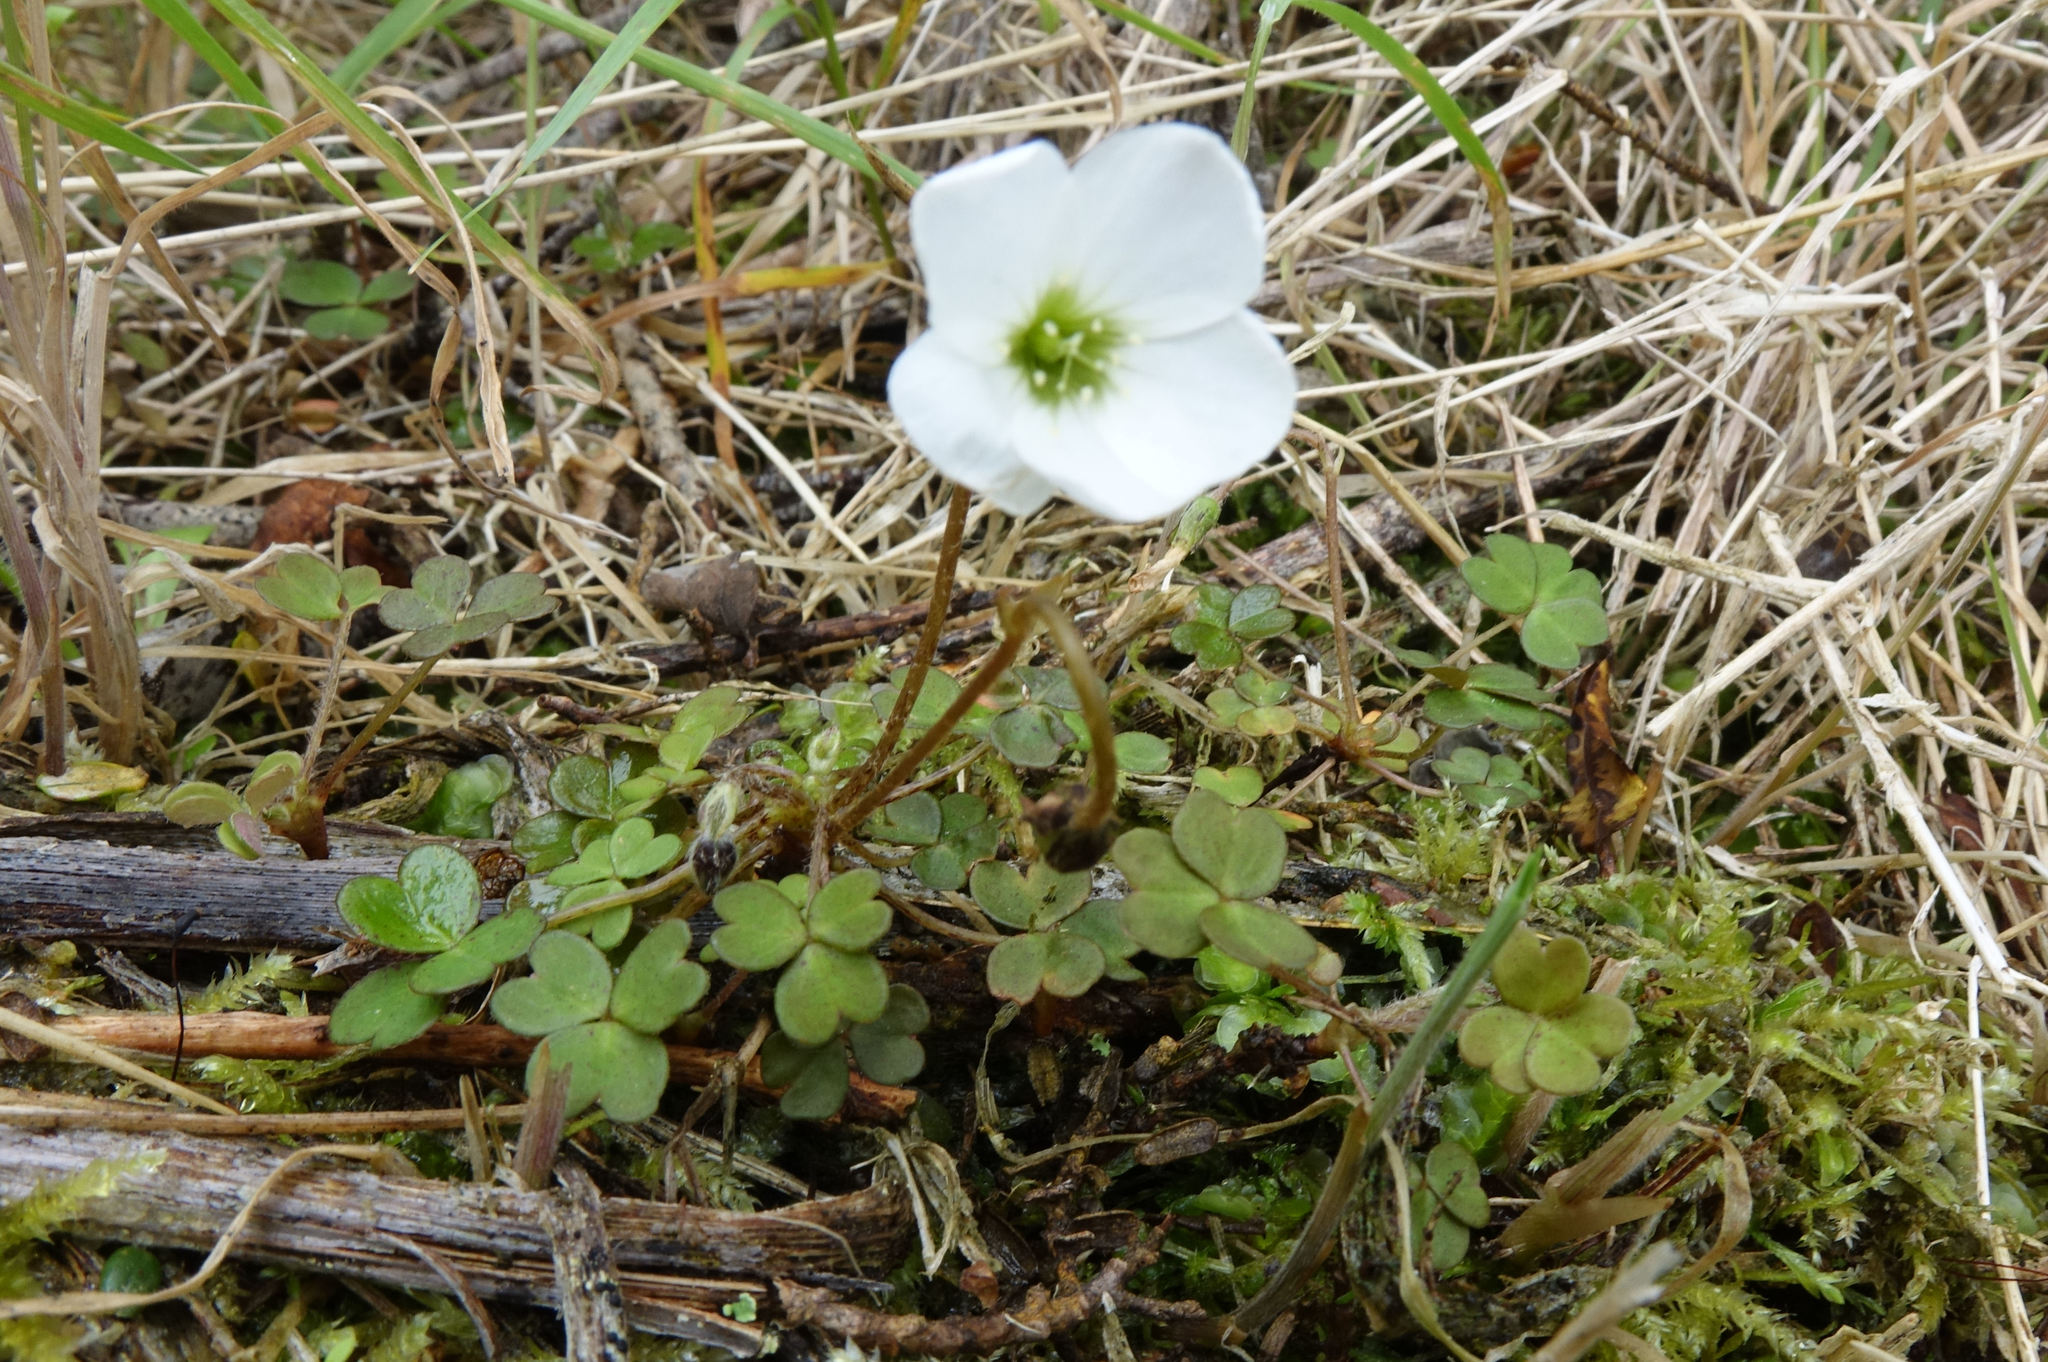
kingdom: Plantae
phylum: Tracheophyta
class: Magnoliopsida
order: Oxalidales
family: Oxalidaceae
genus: Oxalis
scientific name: Oxalis magellanica
